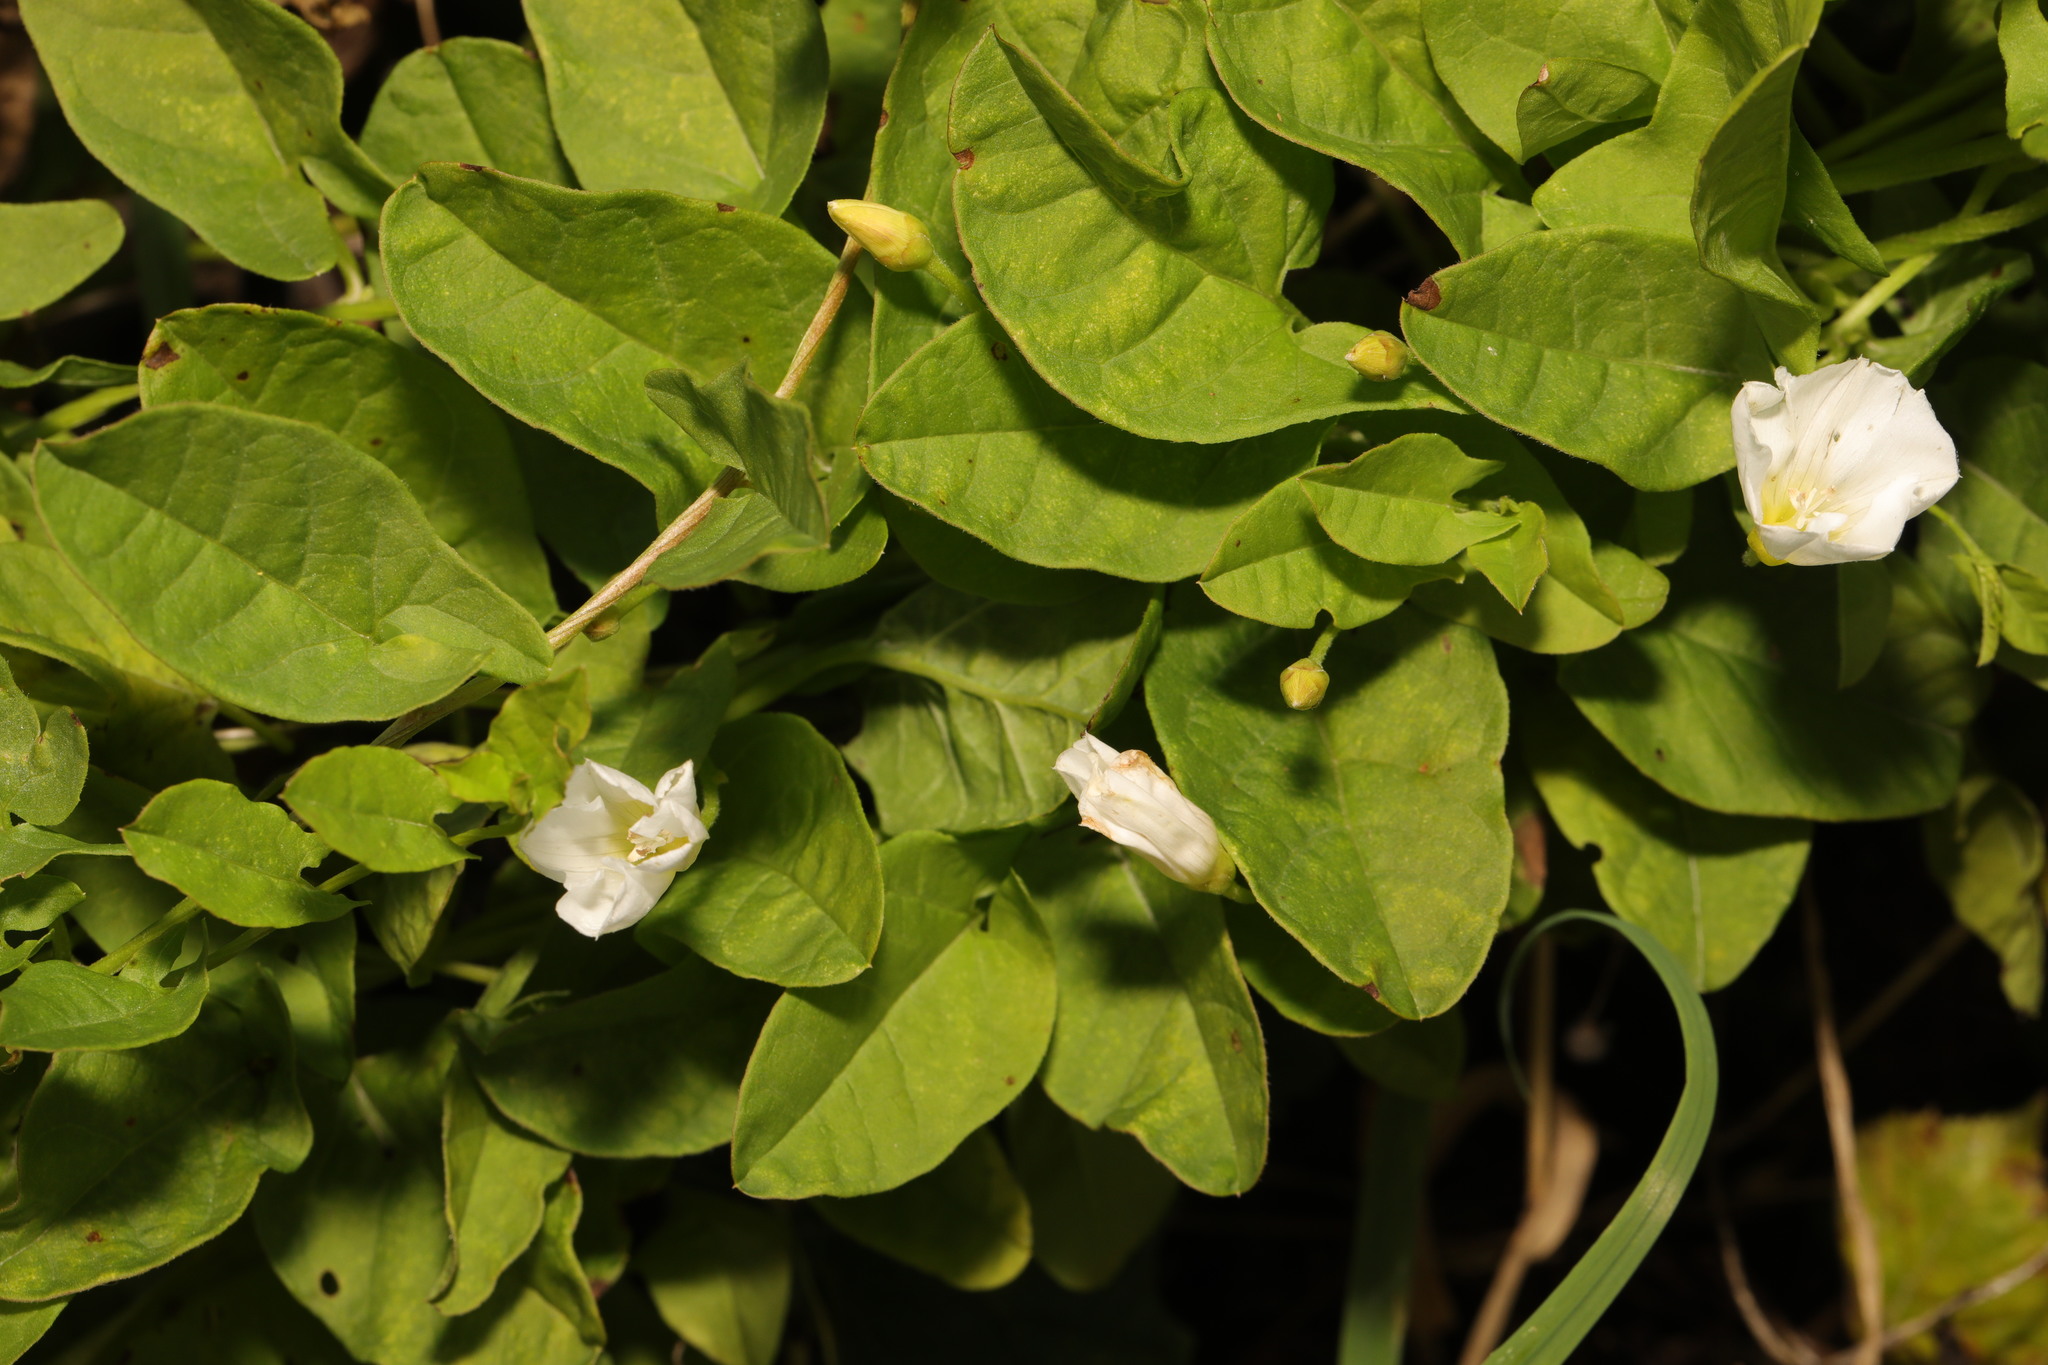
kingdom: Plantae
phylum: Tracheophyta
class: Magnoliopsida
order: Solanales
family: Convolvulaceae
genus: Convolvulus
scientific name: Convolvulus arvensis
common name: Field bindweed
